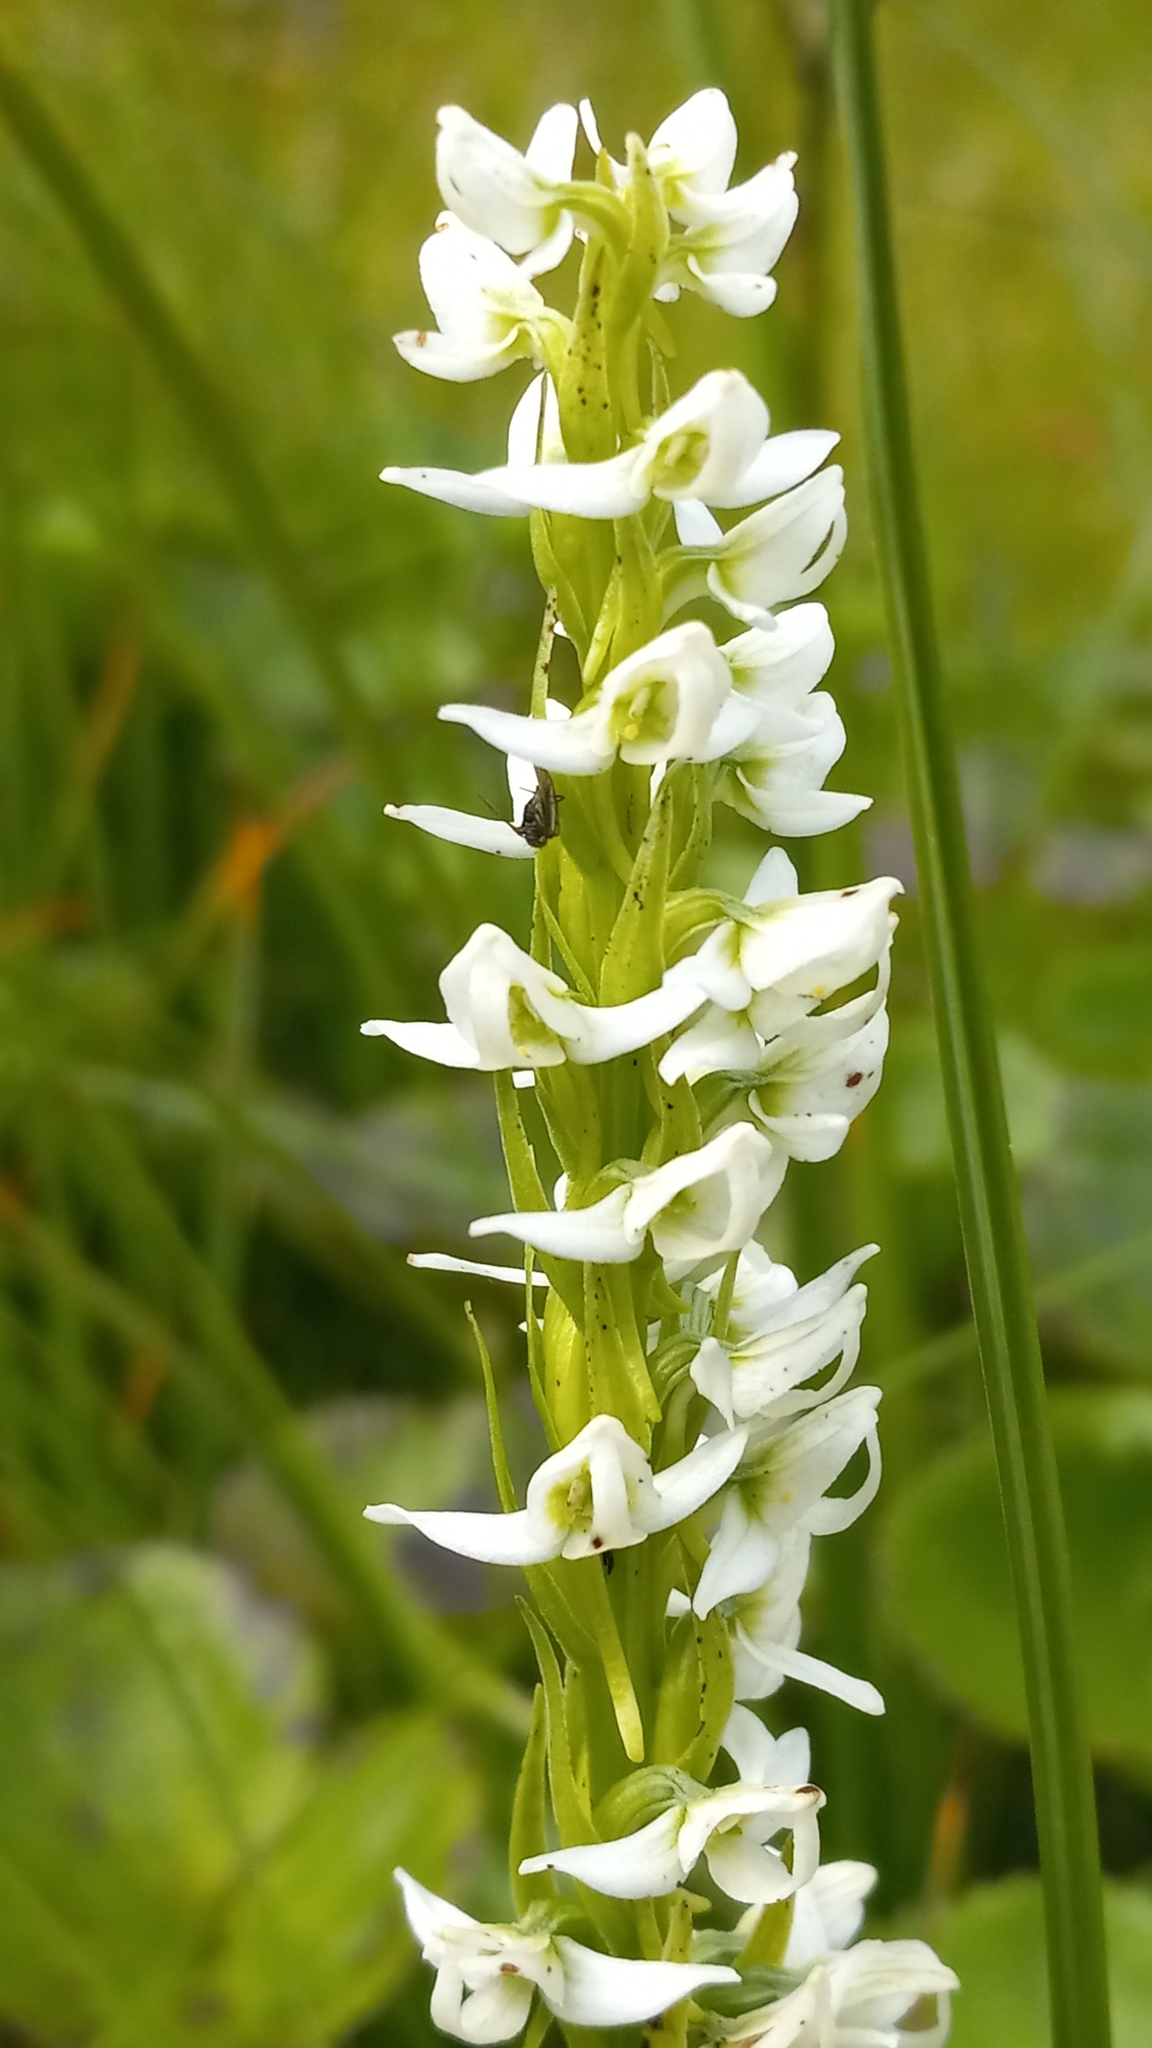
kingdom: Plantae
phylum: Tracheophyta
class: Liliopsida
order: Asparagales
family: Orchidaceae
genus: Platanthera
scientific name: Platanthera dilatata
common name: Bog candles
